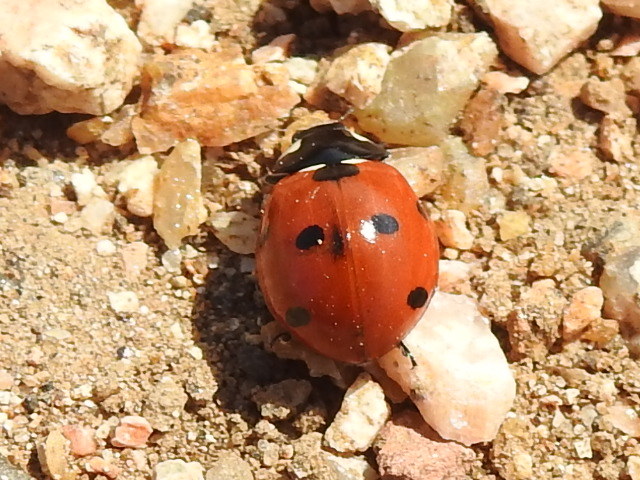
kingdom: Animalia
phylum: Arthropoda
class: Insecta
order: Coleoptera
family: Coccinellidae
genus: Coccinella
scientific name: Coccinella septempunctata
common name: Sevenspotted lady beetle
